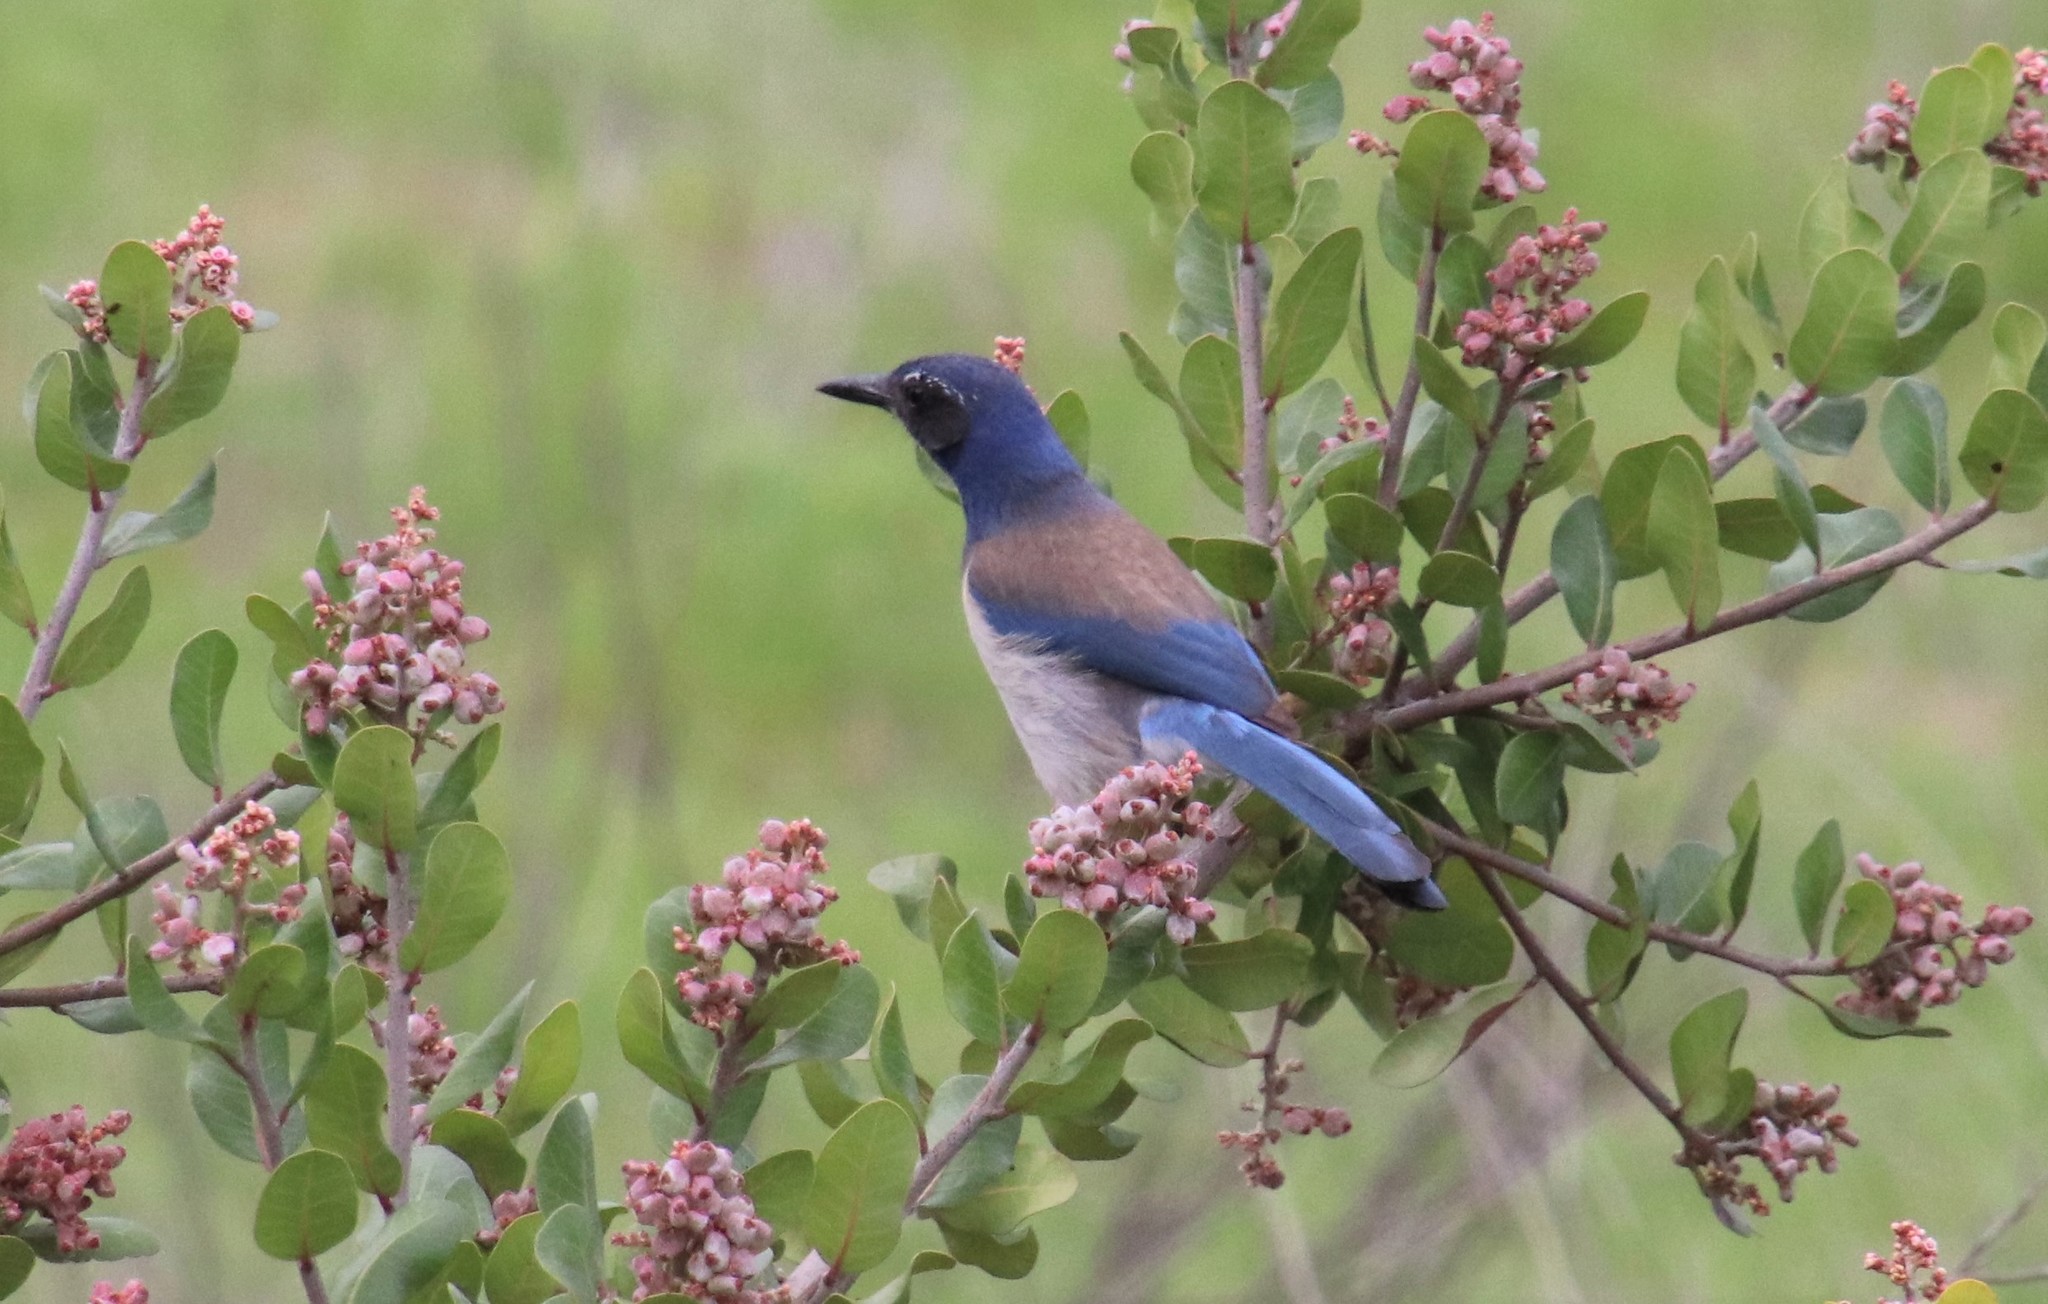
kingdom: Animalia
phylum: Chordata
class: Aves
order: Passeriformes
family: Corvidae
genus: Aphelocoma
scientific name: Aphelocoma californica
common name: California scrub-jay
